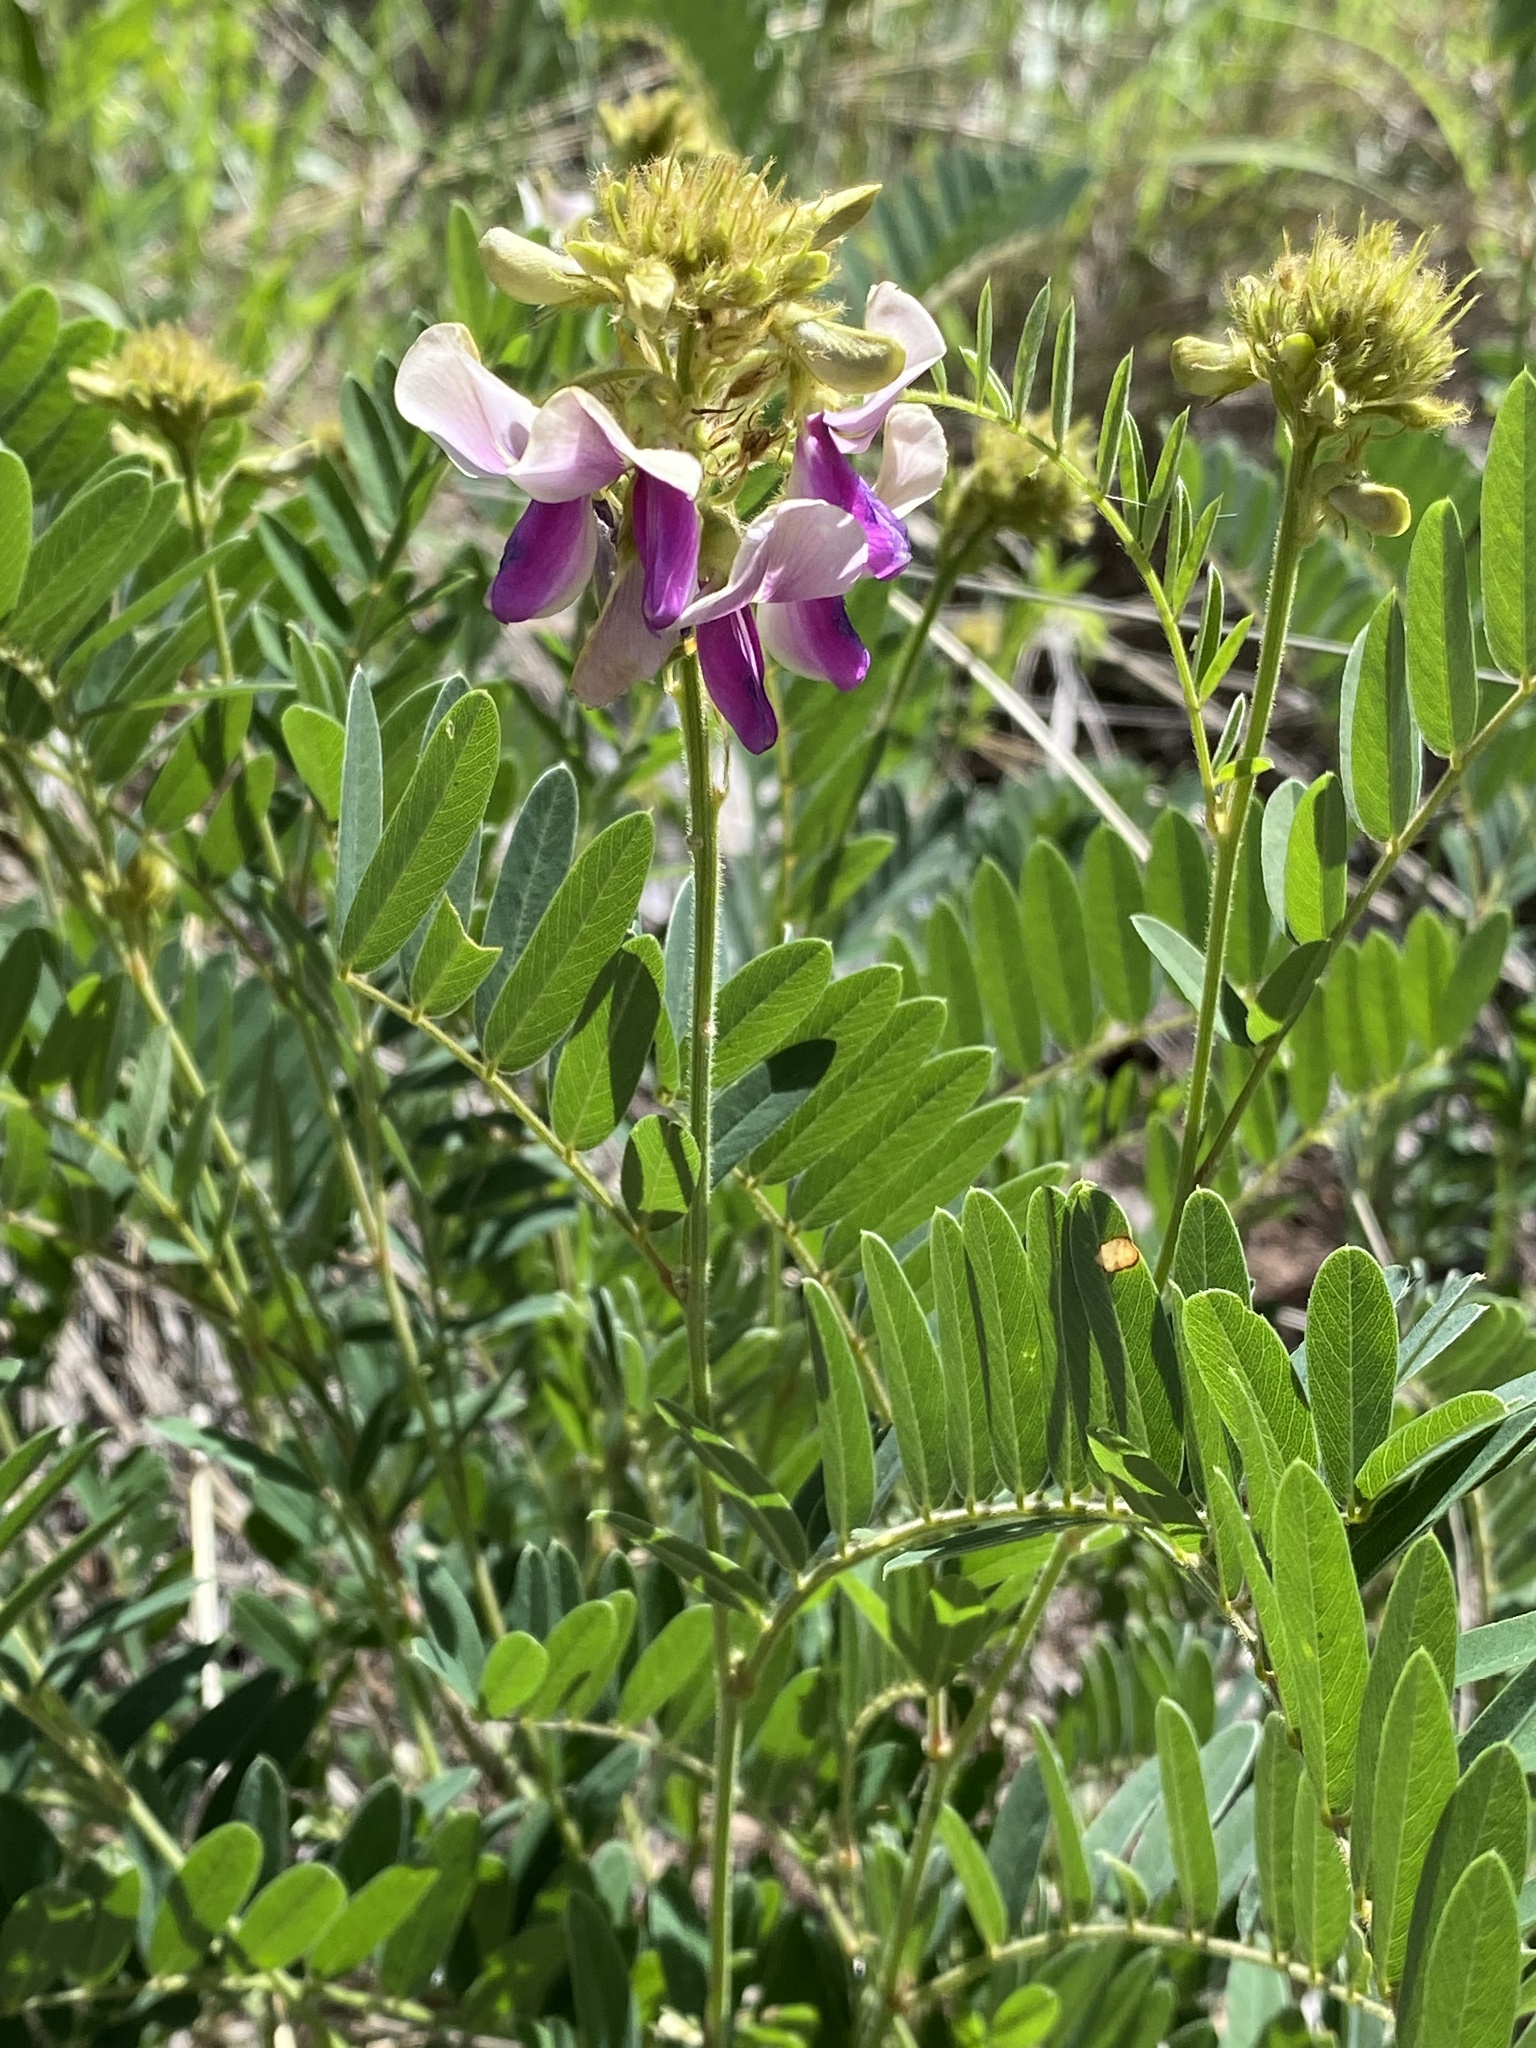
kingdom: Plantae
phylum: Tracheophyta
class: Magnoliopsida
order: Fabales
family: Fabaceae
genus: Tephrosia
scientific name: Tephrosia thurberi
